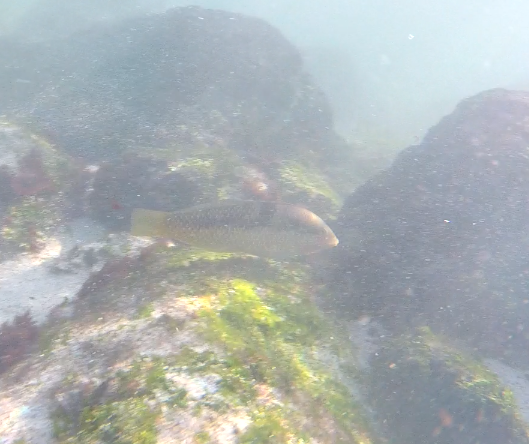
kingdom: Animalia
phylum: Chordata
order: Perciformes
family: Labridae
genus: Halichoeres
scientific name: Halichoeres nicholsi
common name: Spinster wrasse
